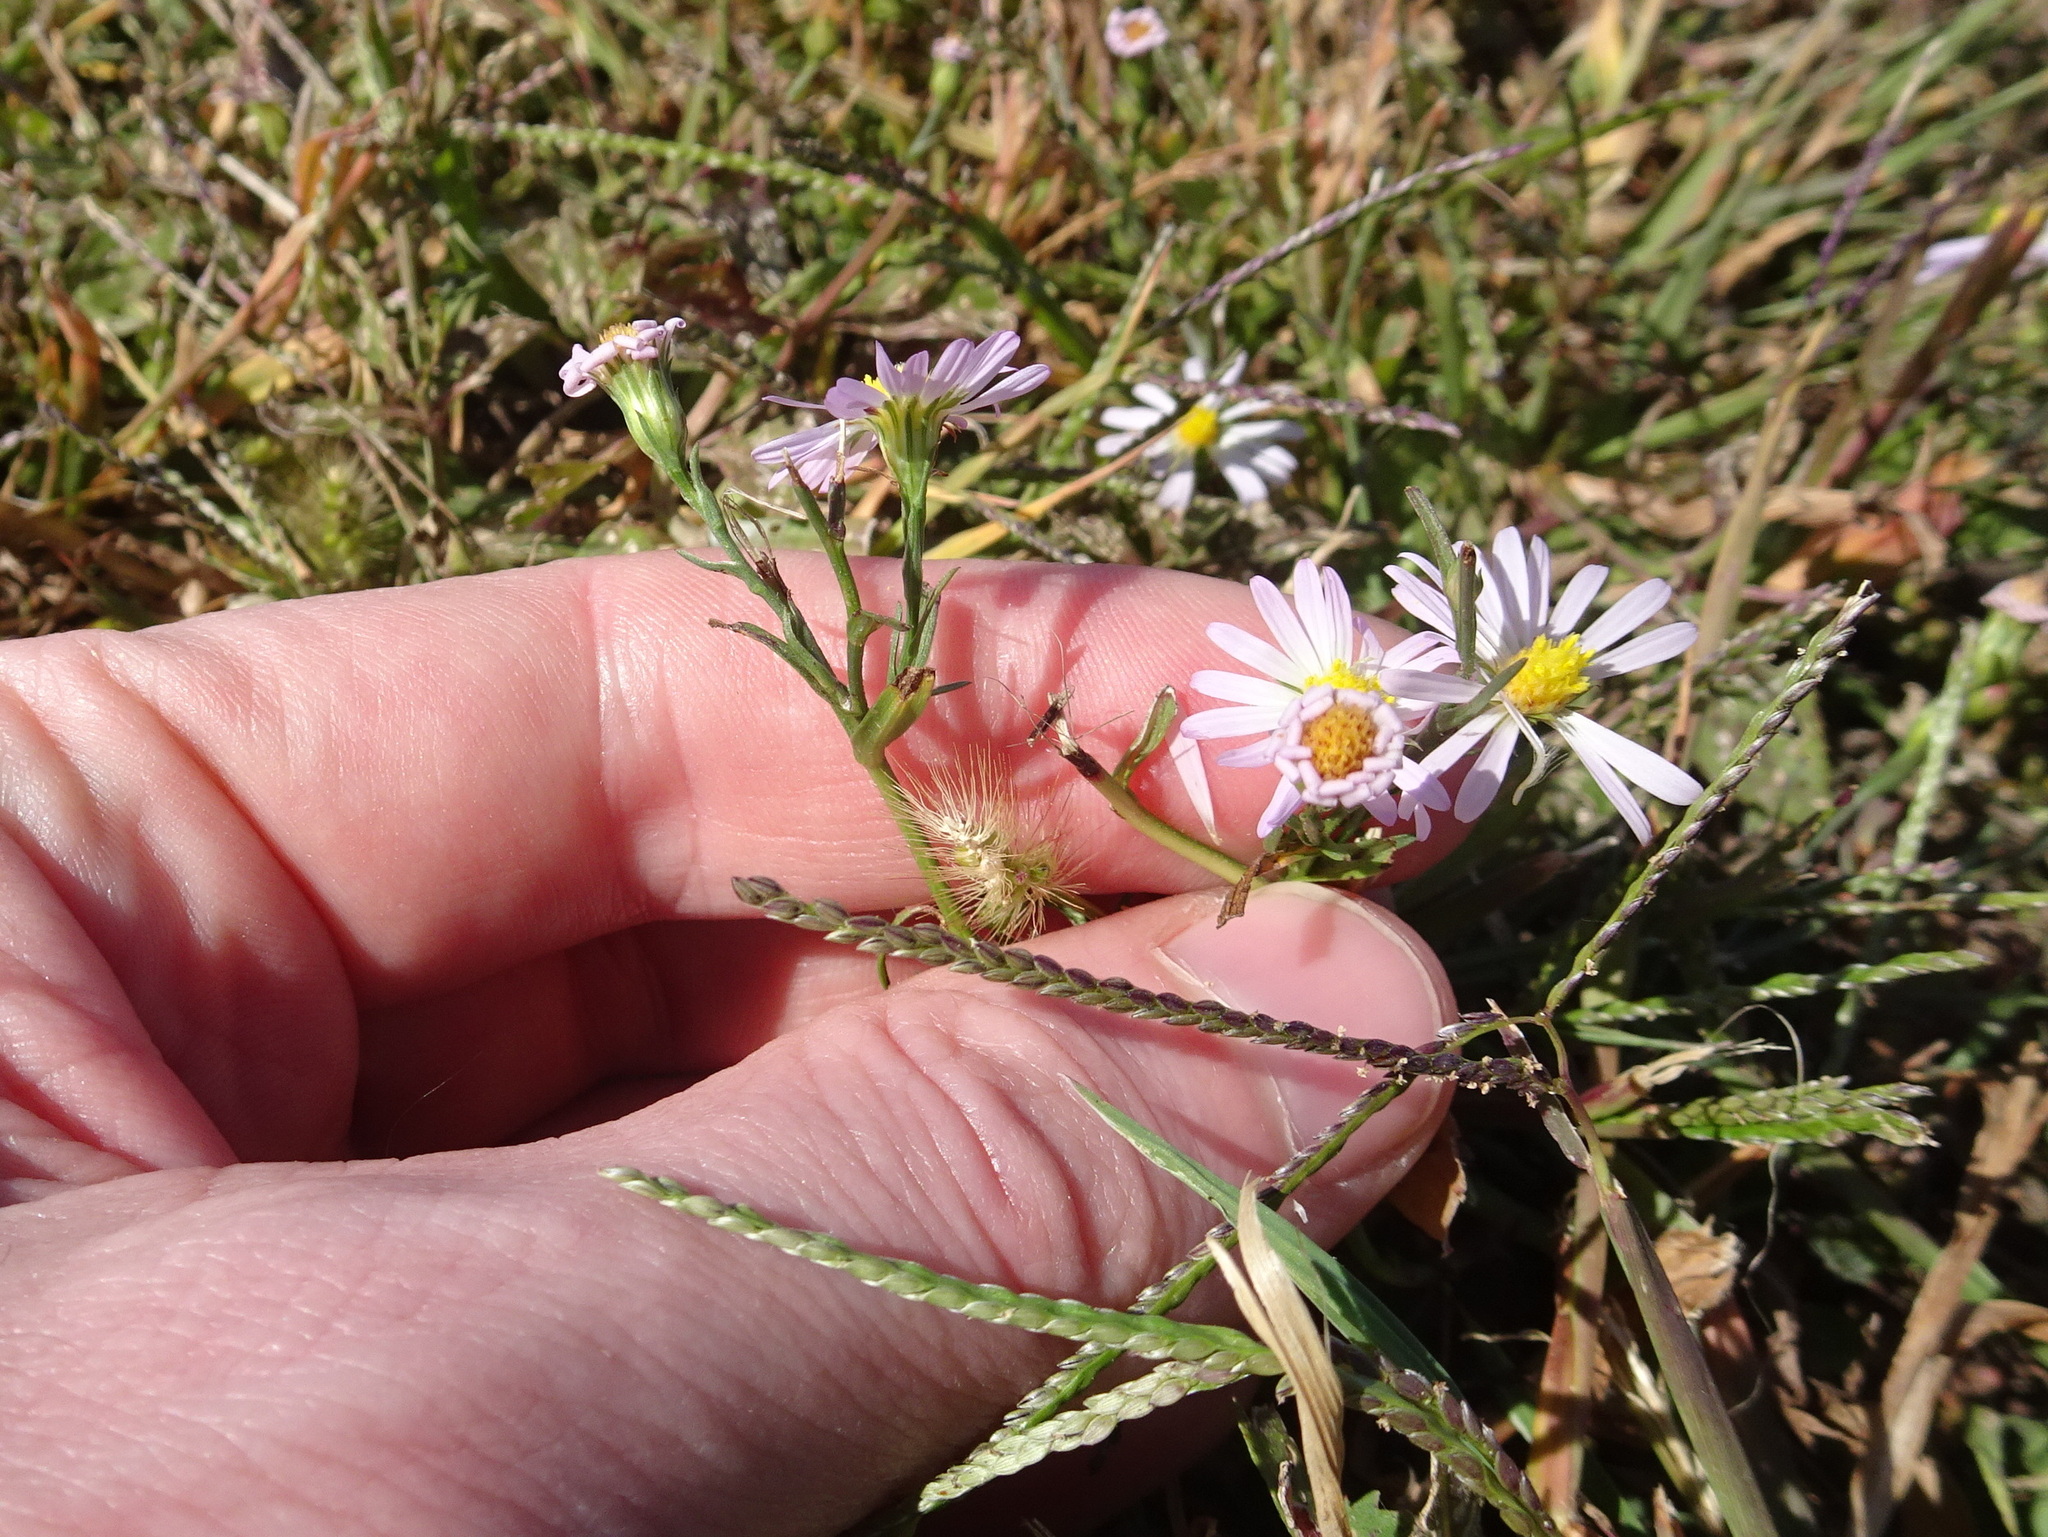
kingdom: Plantae
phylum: Tracheophyta
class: Magnoliopsida
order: Asterales
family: Asteraceae
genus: Symphyotrichum
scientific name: Symphyotrichum divaricatum
